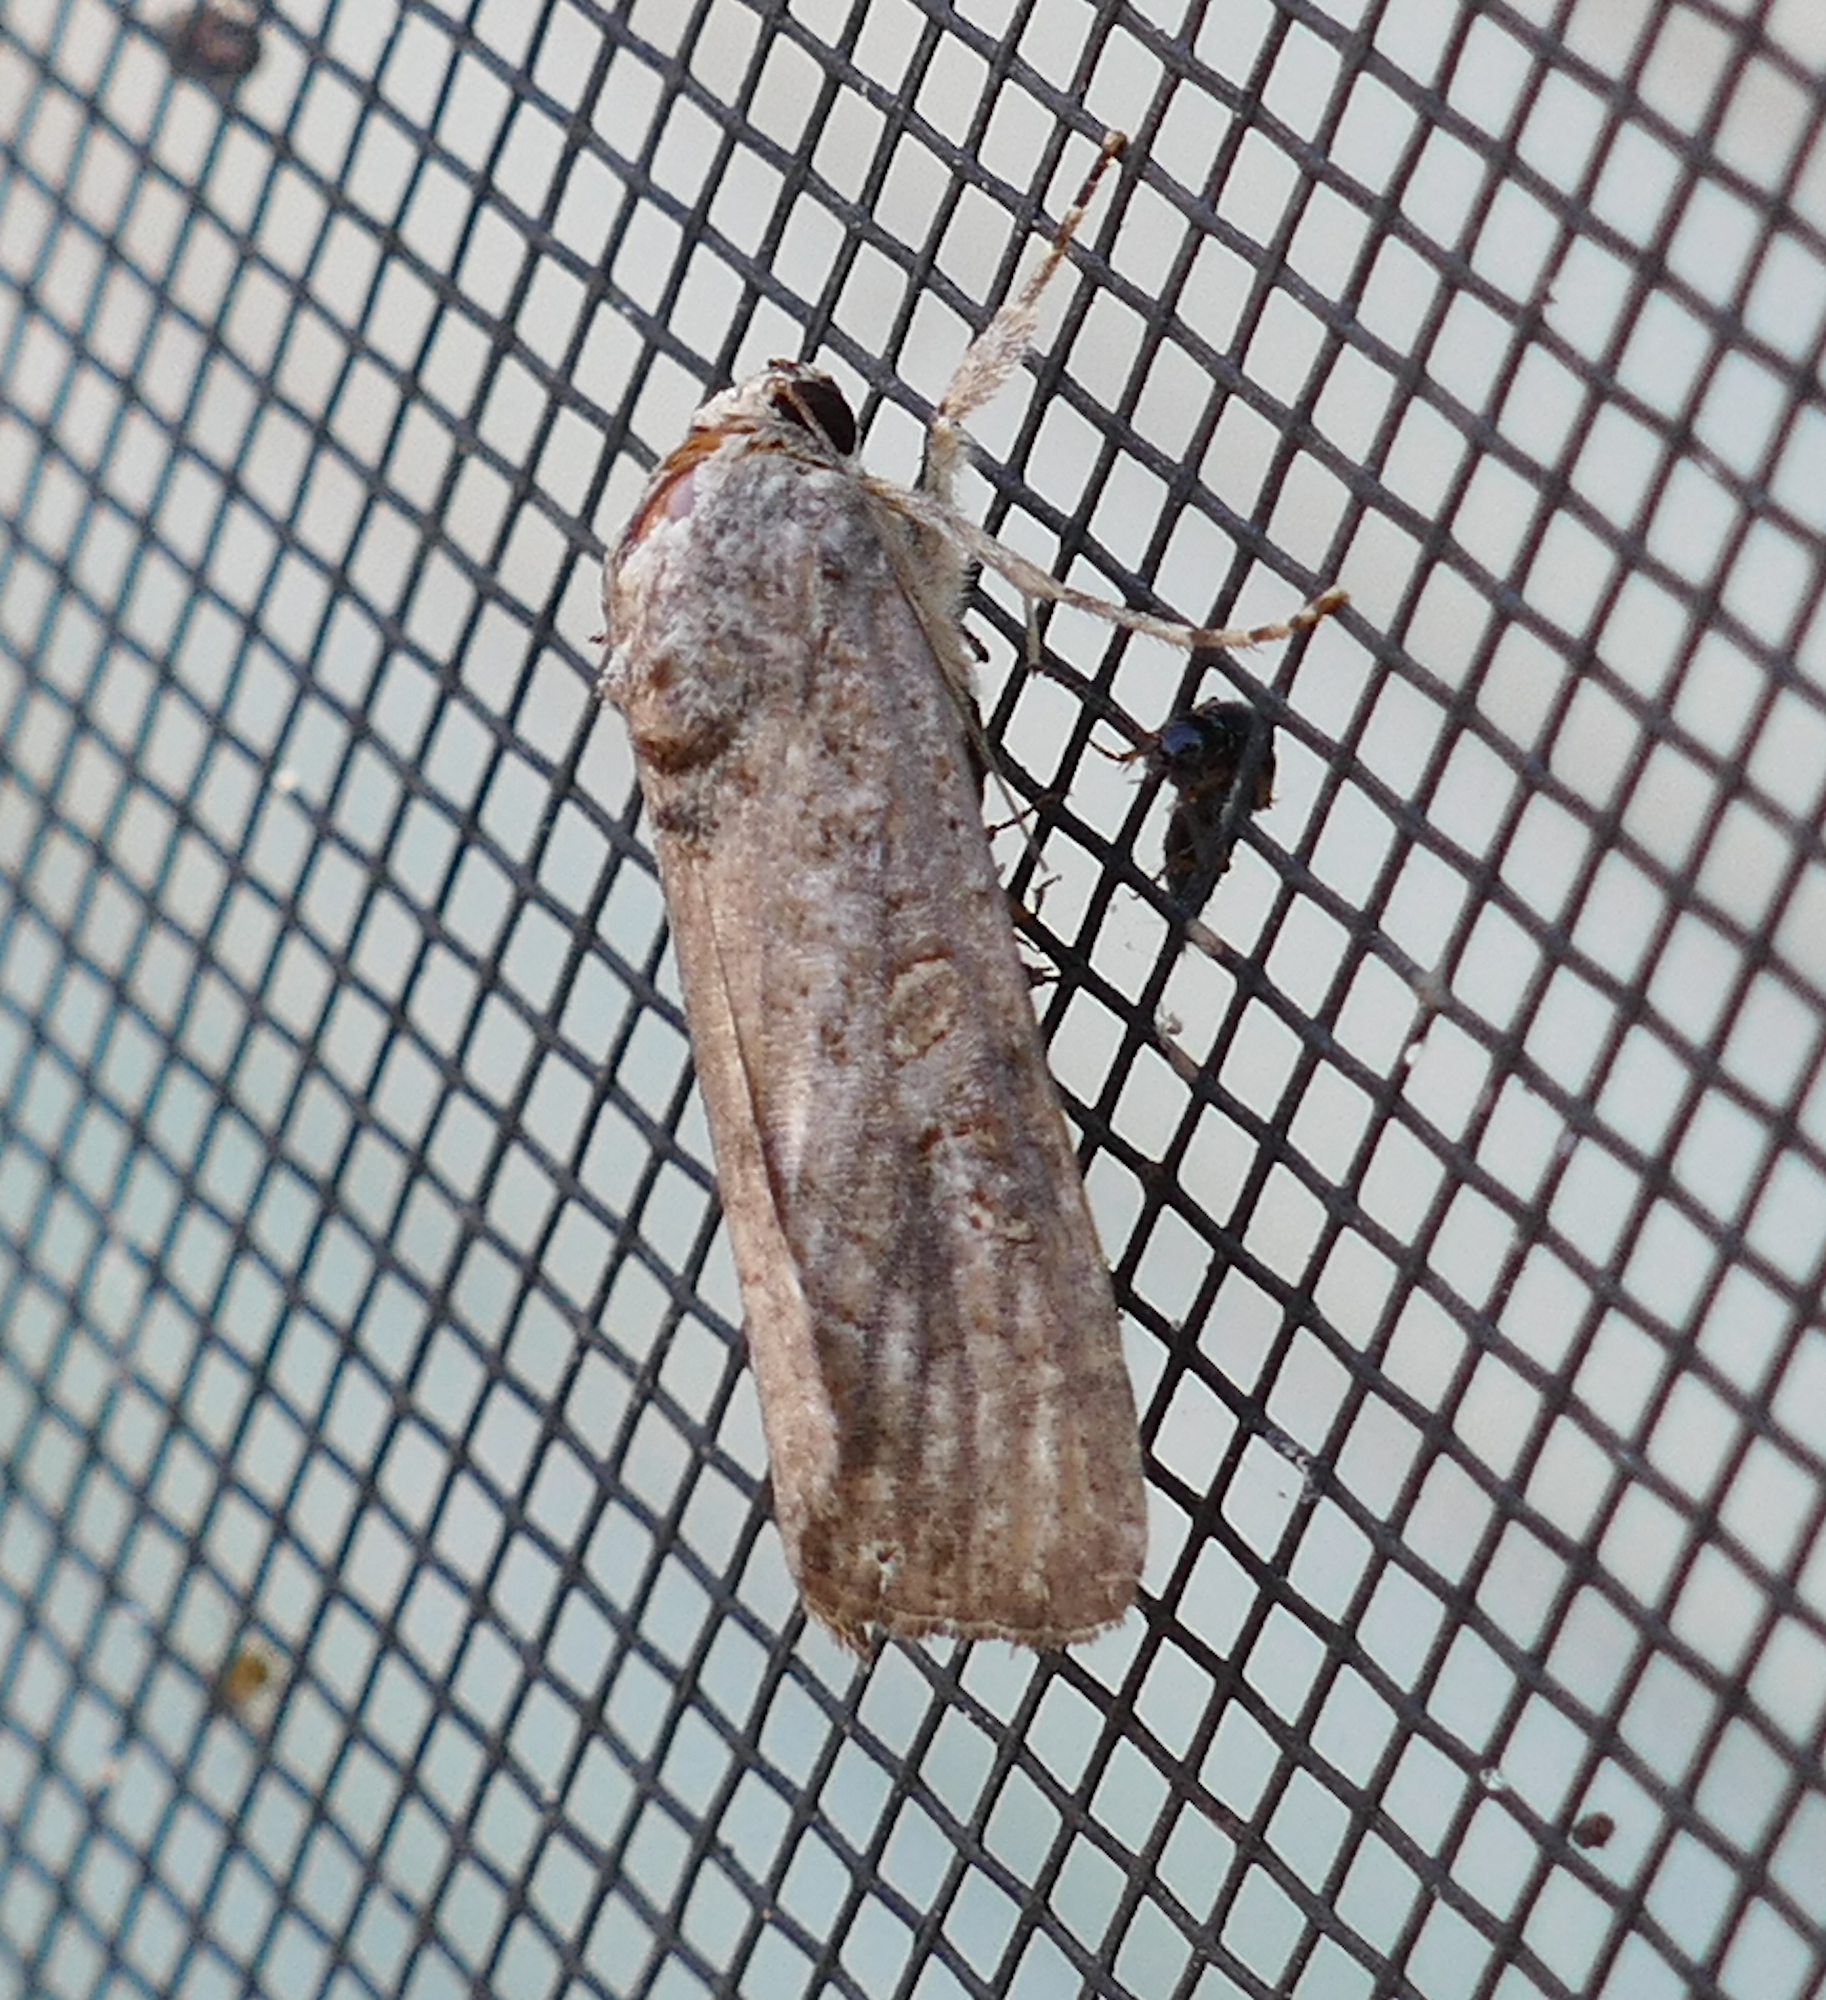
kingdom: Animalia
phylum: Arthropoda
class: Insecta
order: Lepidoptera
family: Noctuidae
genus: Spodoptera
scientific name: Spodoptera frugiperda
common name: Fall armyworm
